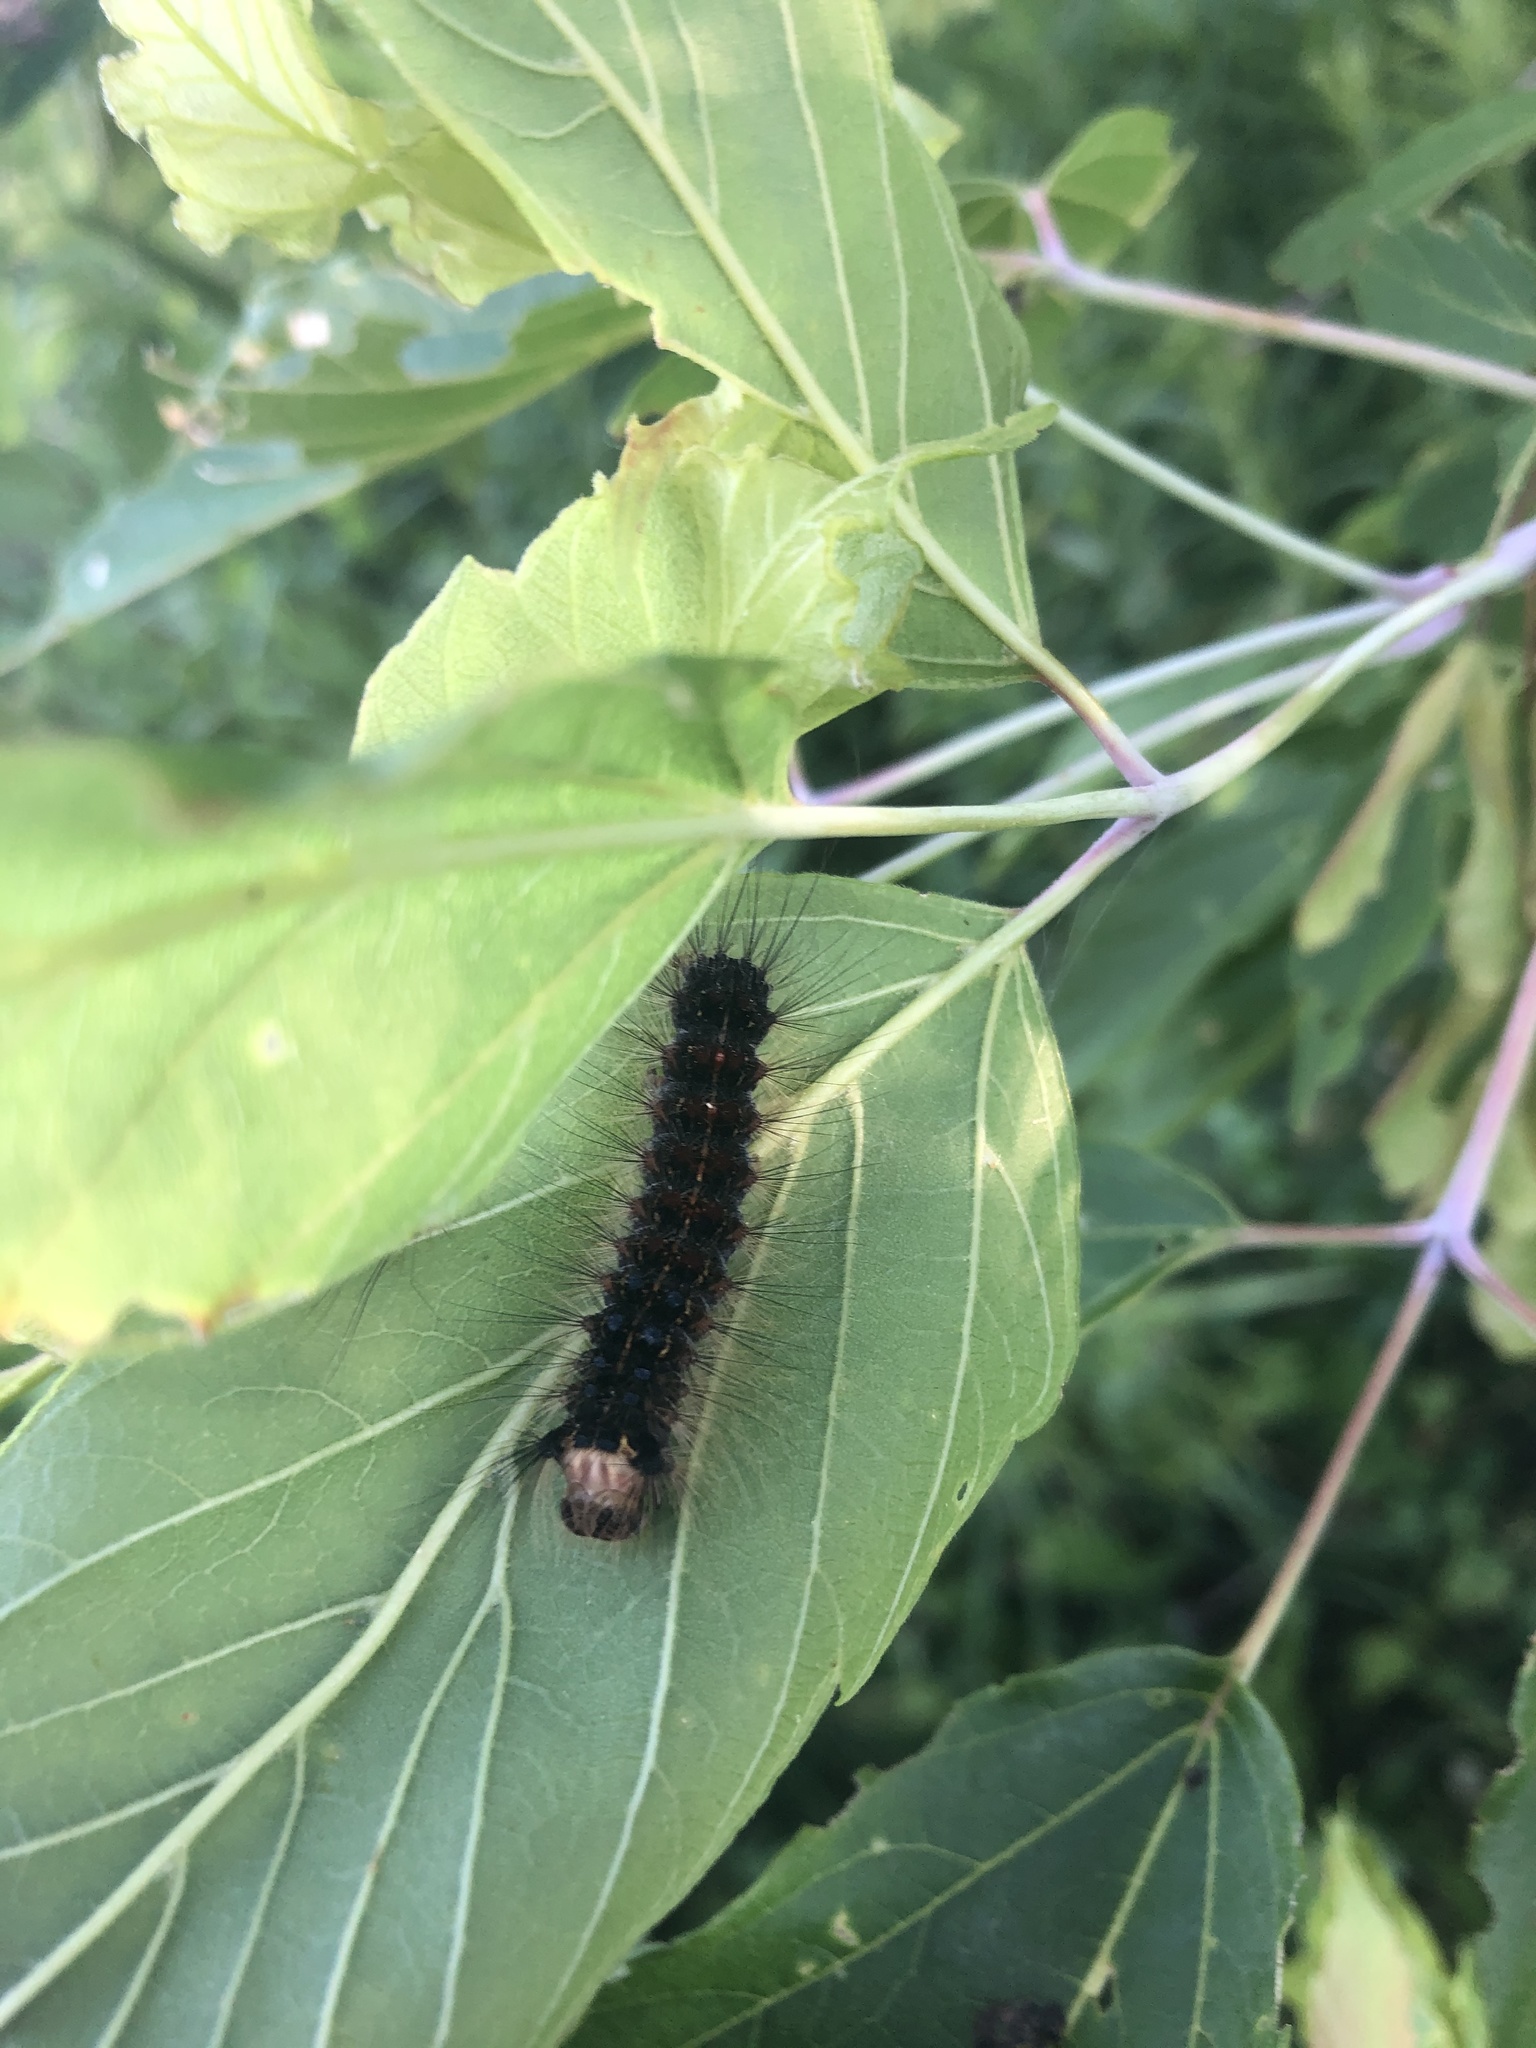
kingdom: Animalia
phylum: Arthropoda
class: Insecta
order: Lepidoptera
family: Erebidae
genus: Lymantria
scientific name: Lymantria dispar
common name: Gypsy moth
